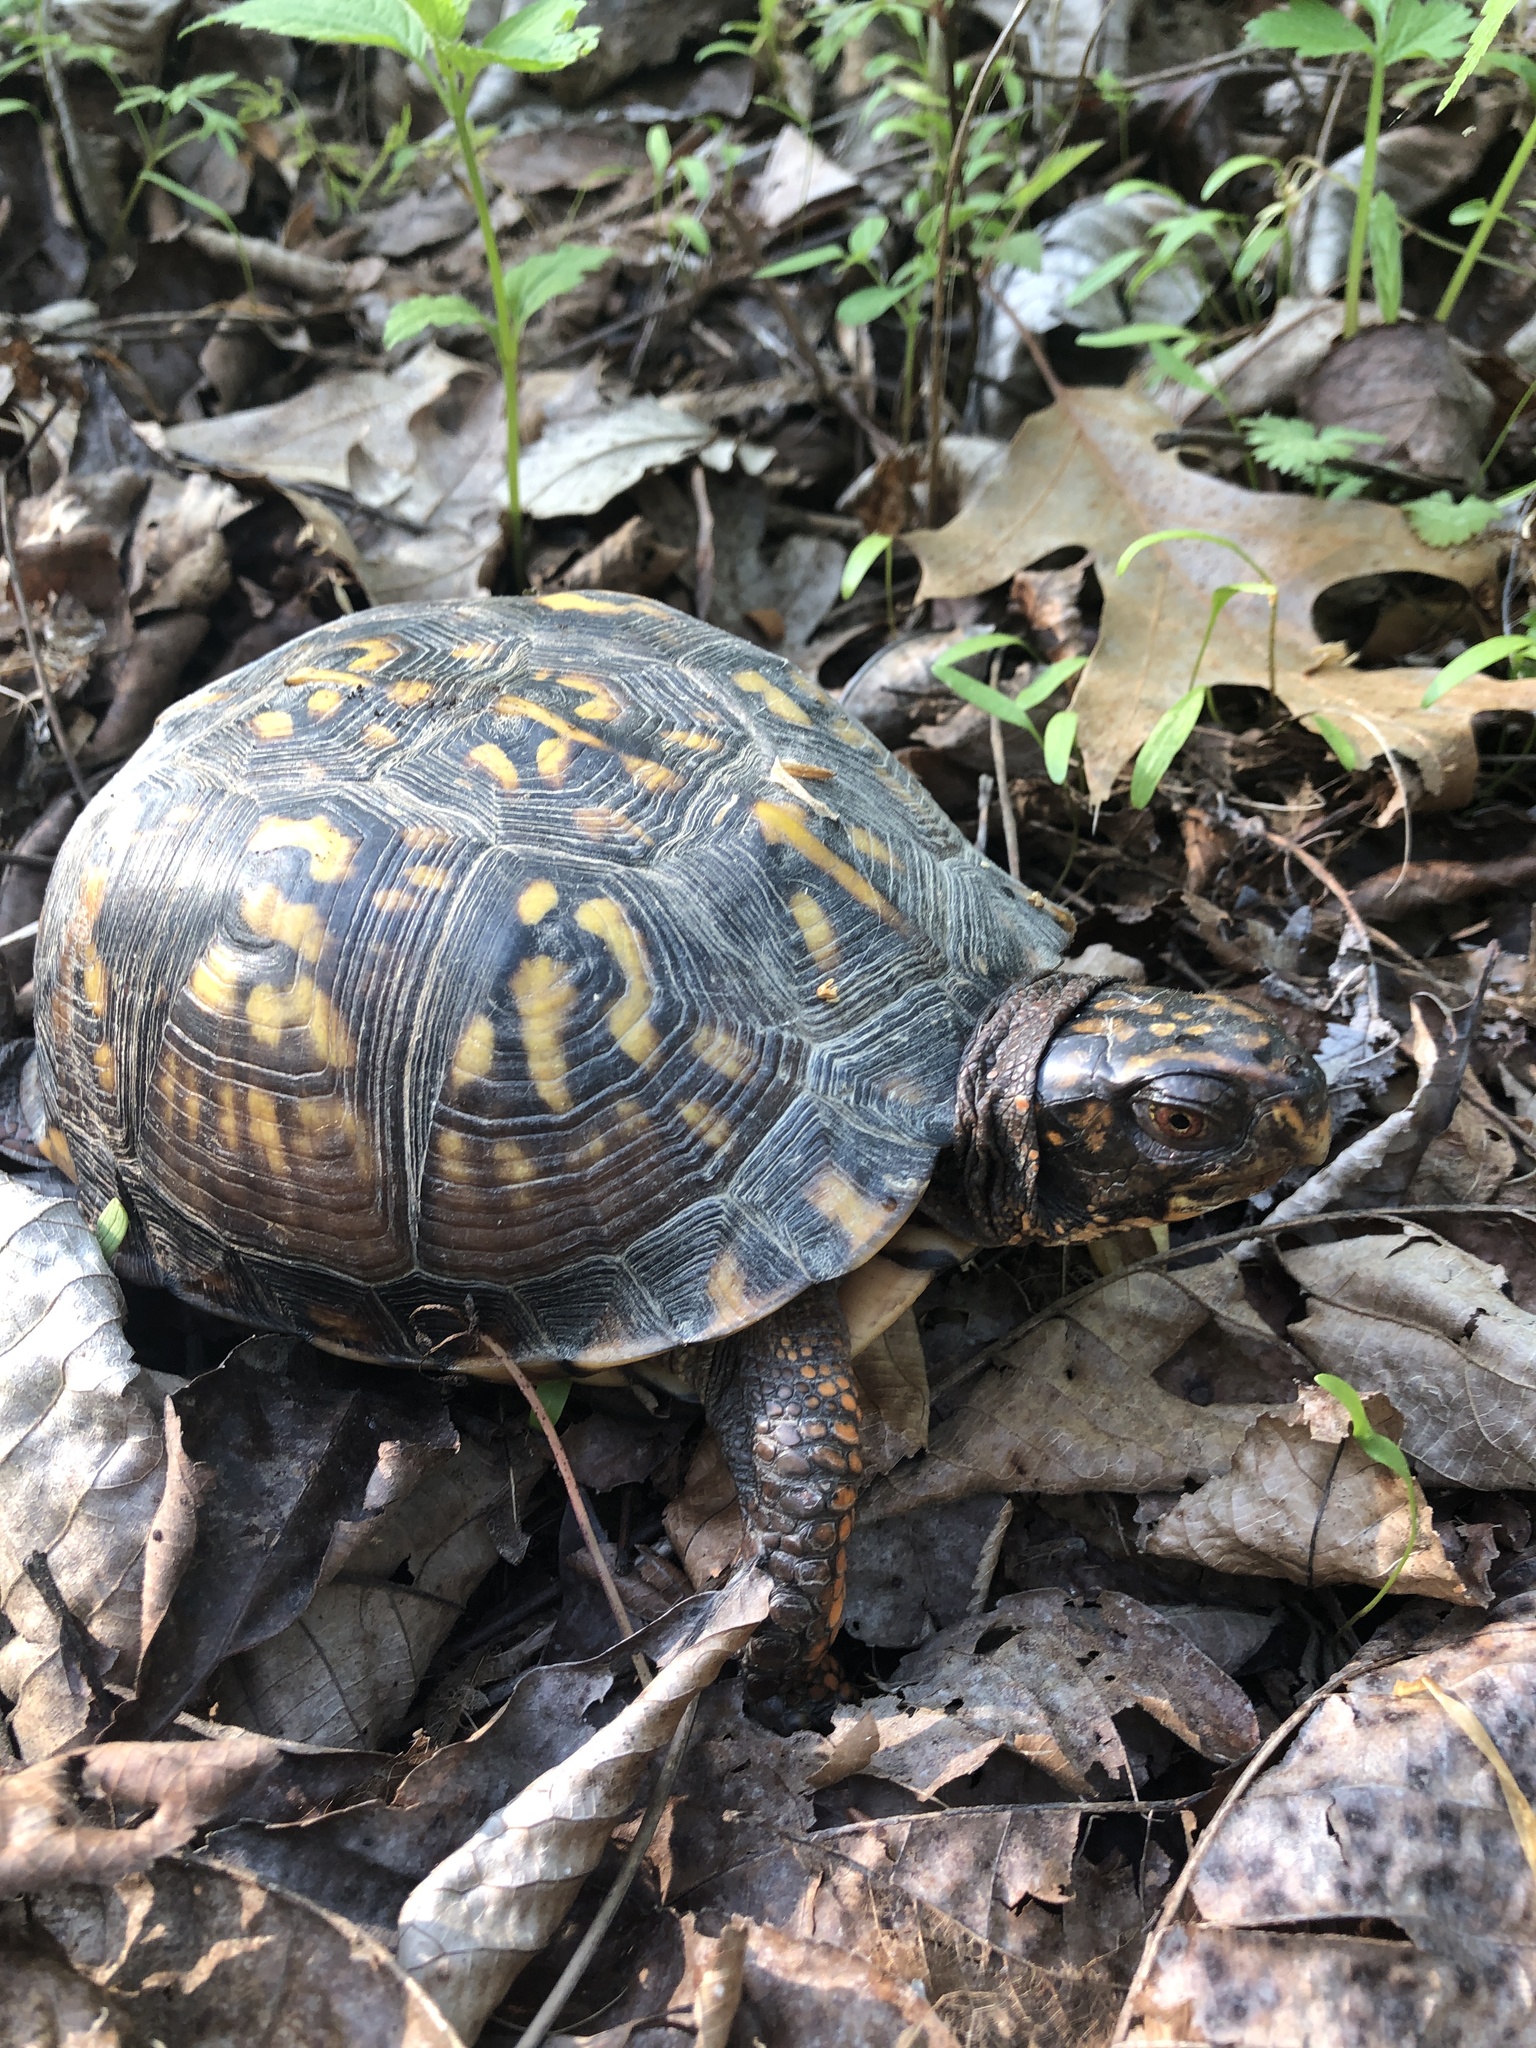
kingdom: Animalia
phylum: Chordata
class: Testudines
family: Emydidae
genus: Terrapene
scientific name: Terrapene carolina
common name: Common box turtle
